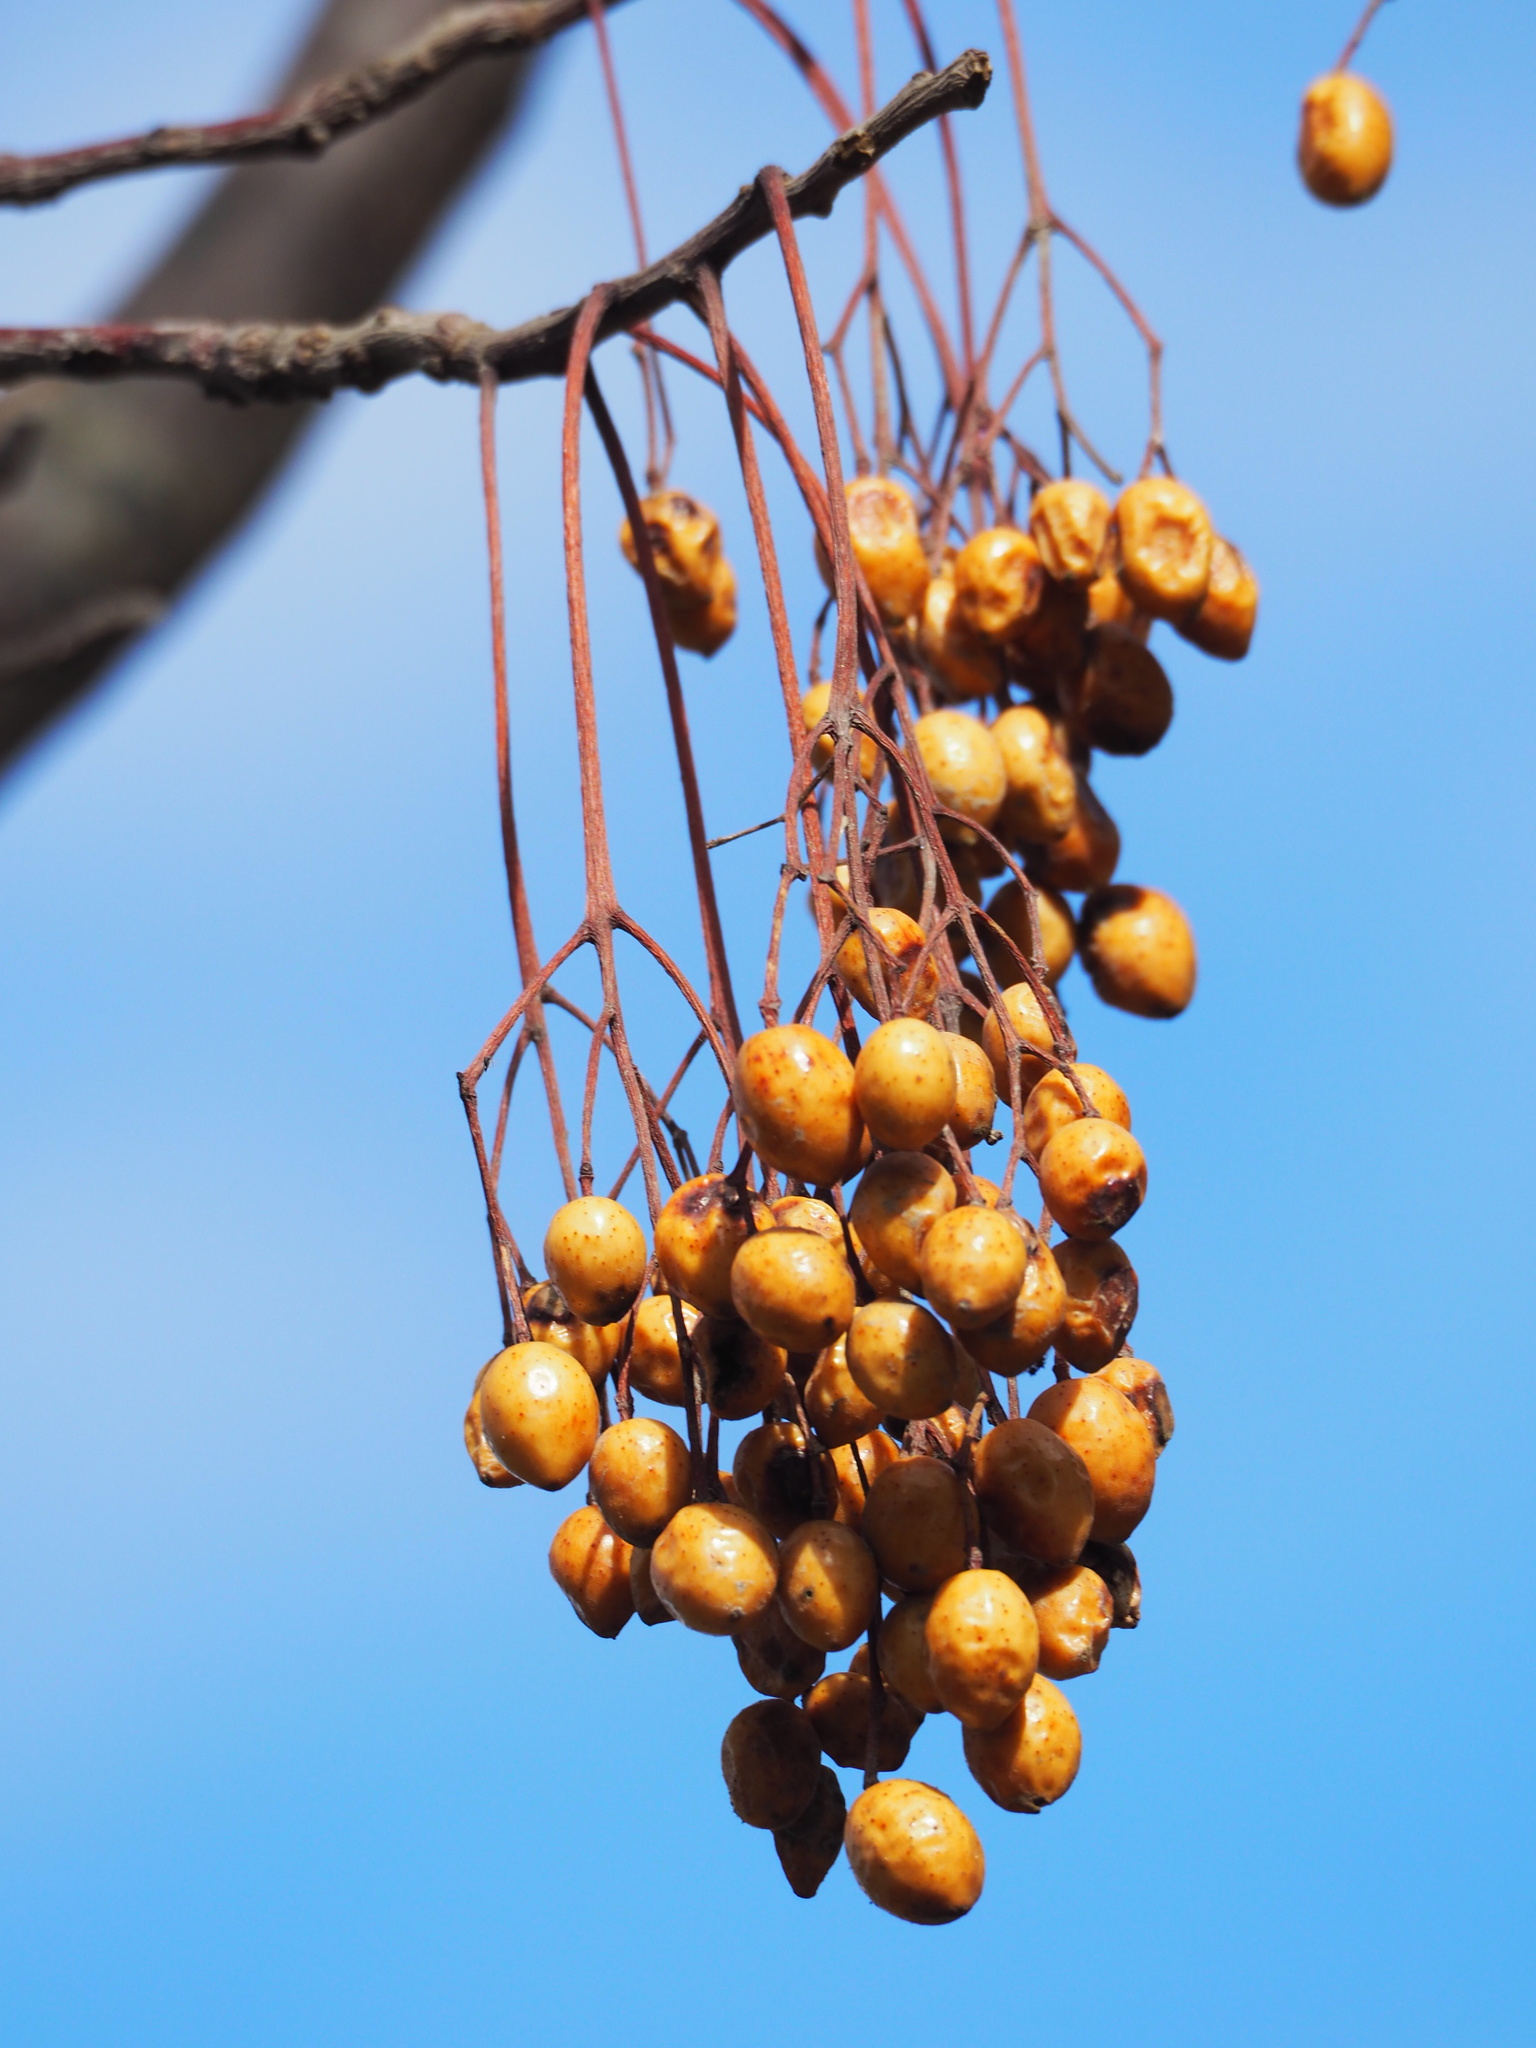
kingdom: Plantae
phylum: Tracheophyta
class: Magnoliopsida
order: Sapindales
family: Meliaceae
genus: Melia
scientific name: Melia azedarach
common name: Chinaberrytree
